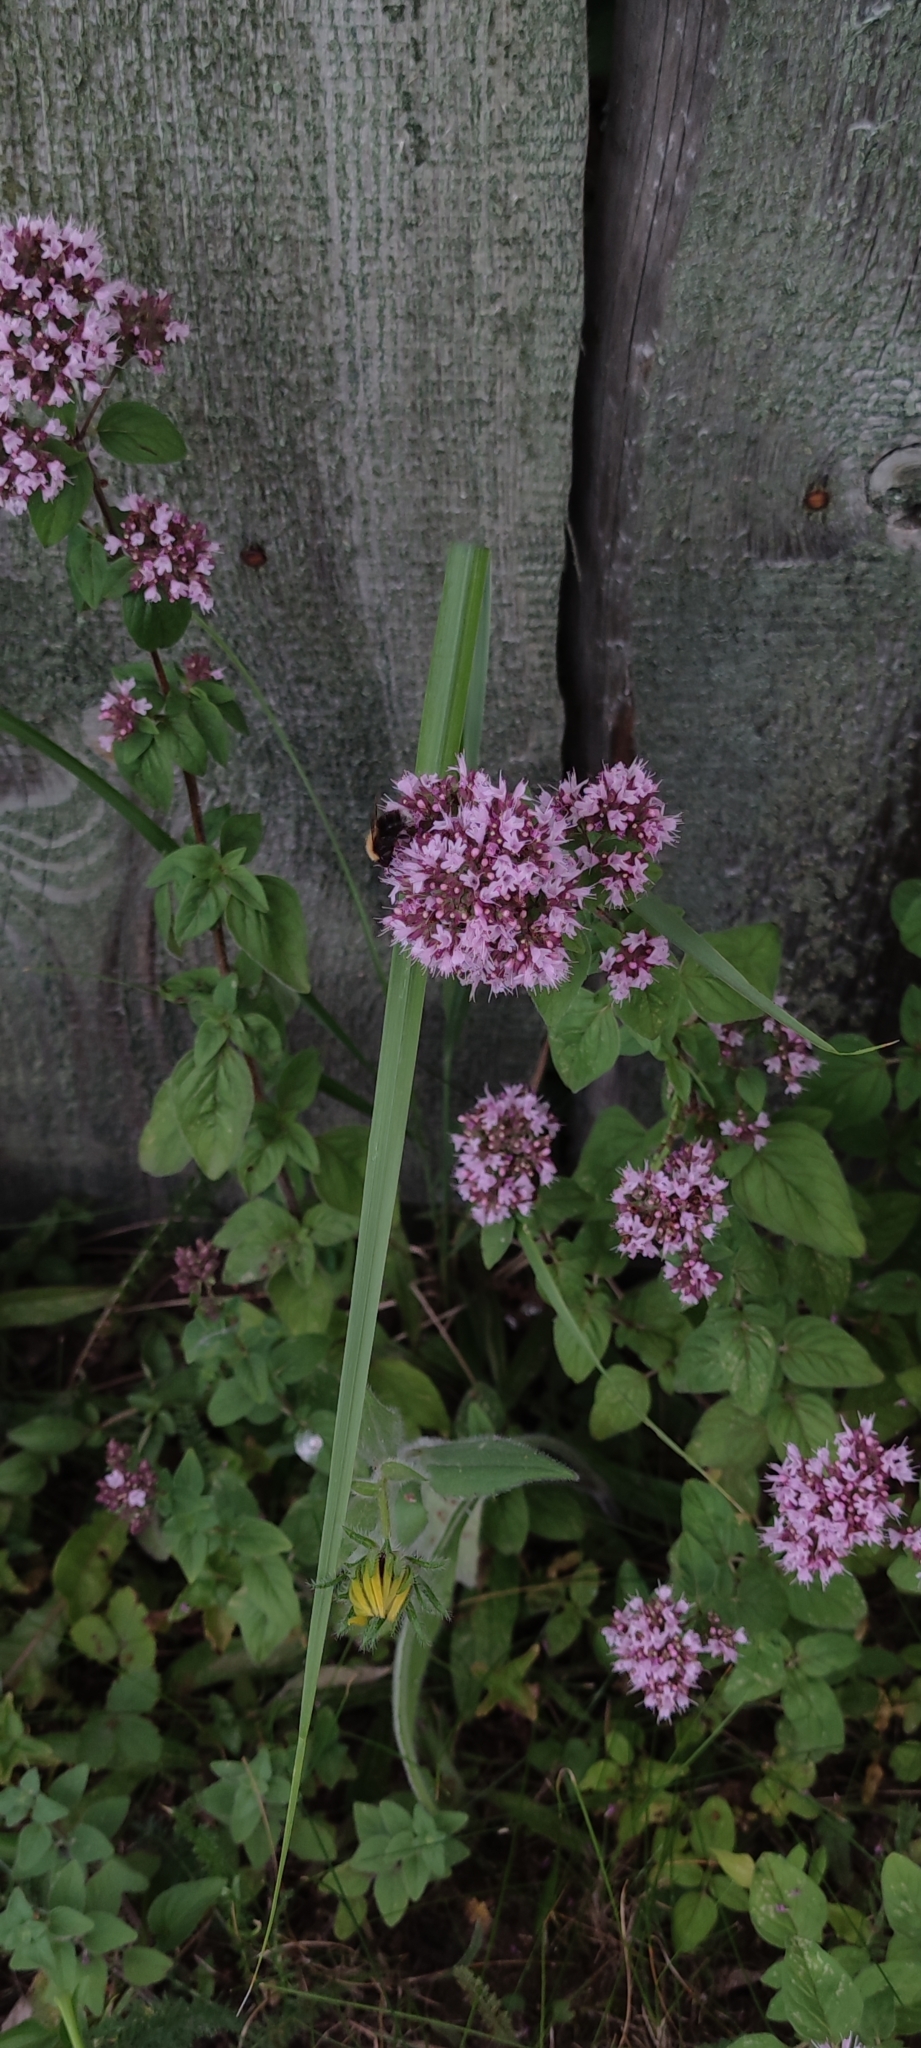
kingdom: Plantae
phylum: Tracheophyta
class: Magnoliopsida
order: Lamiales
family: Lamiaceae
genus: Origanum
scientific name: Origanum vulgare
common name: Wild marjoram
